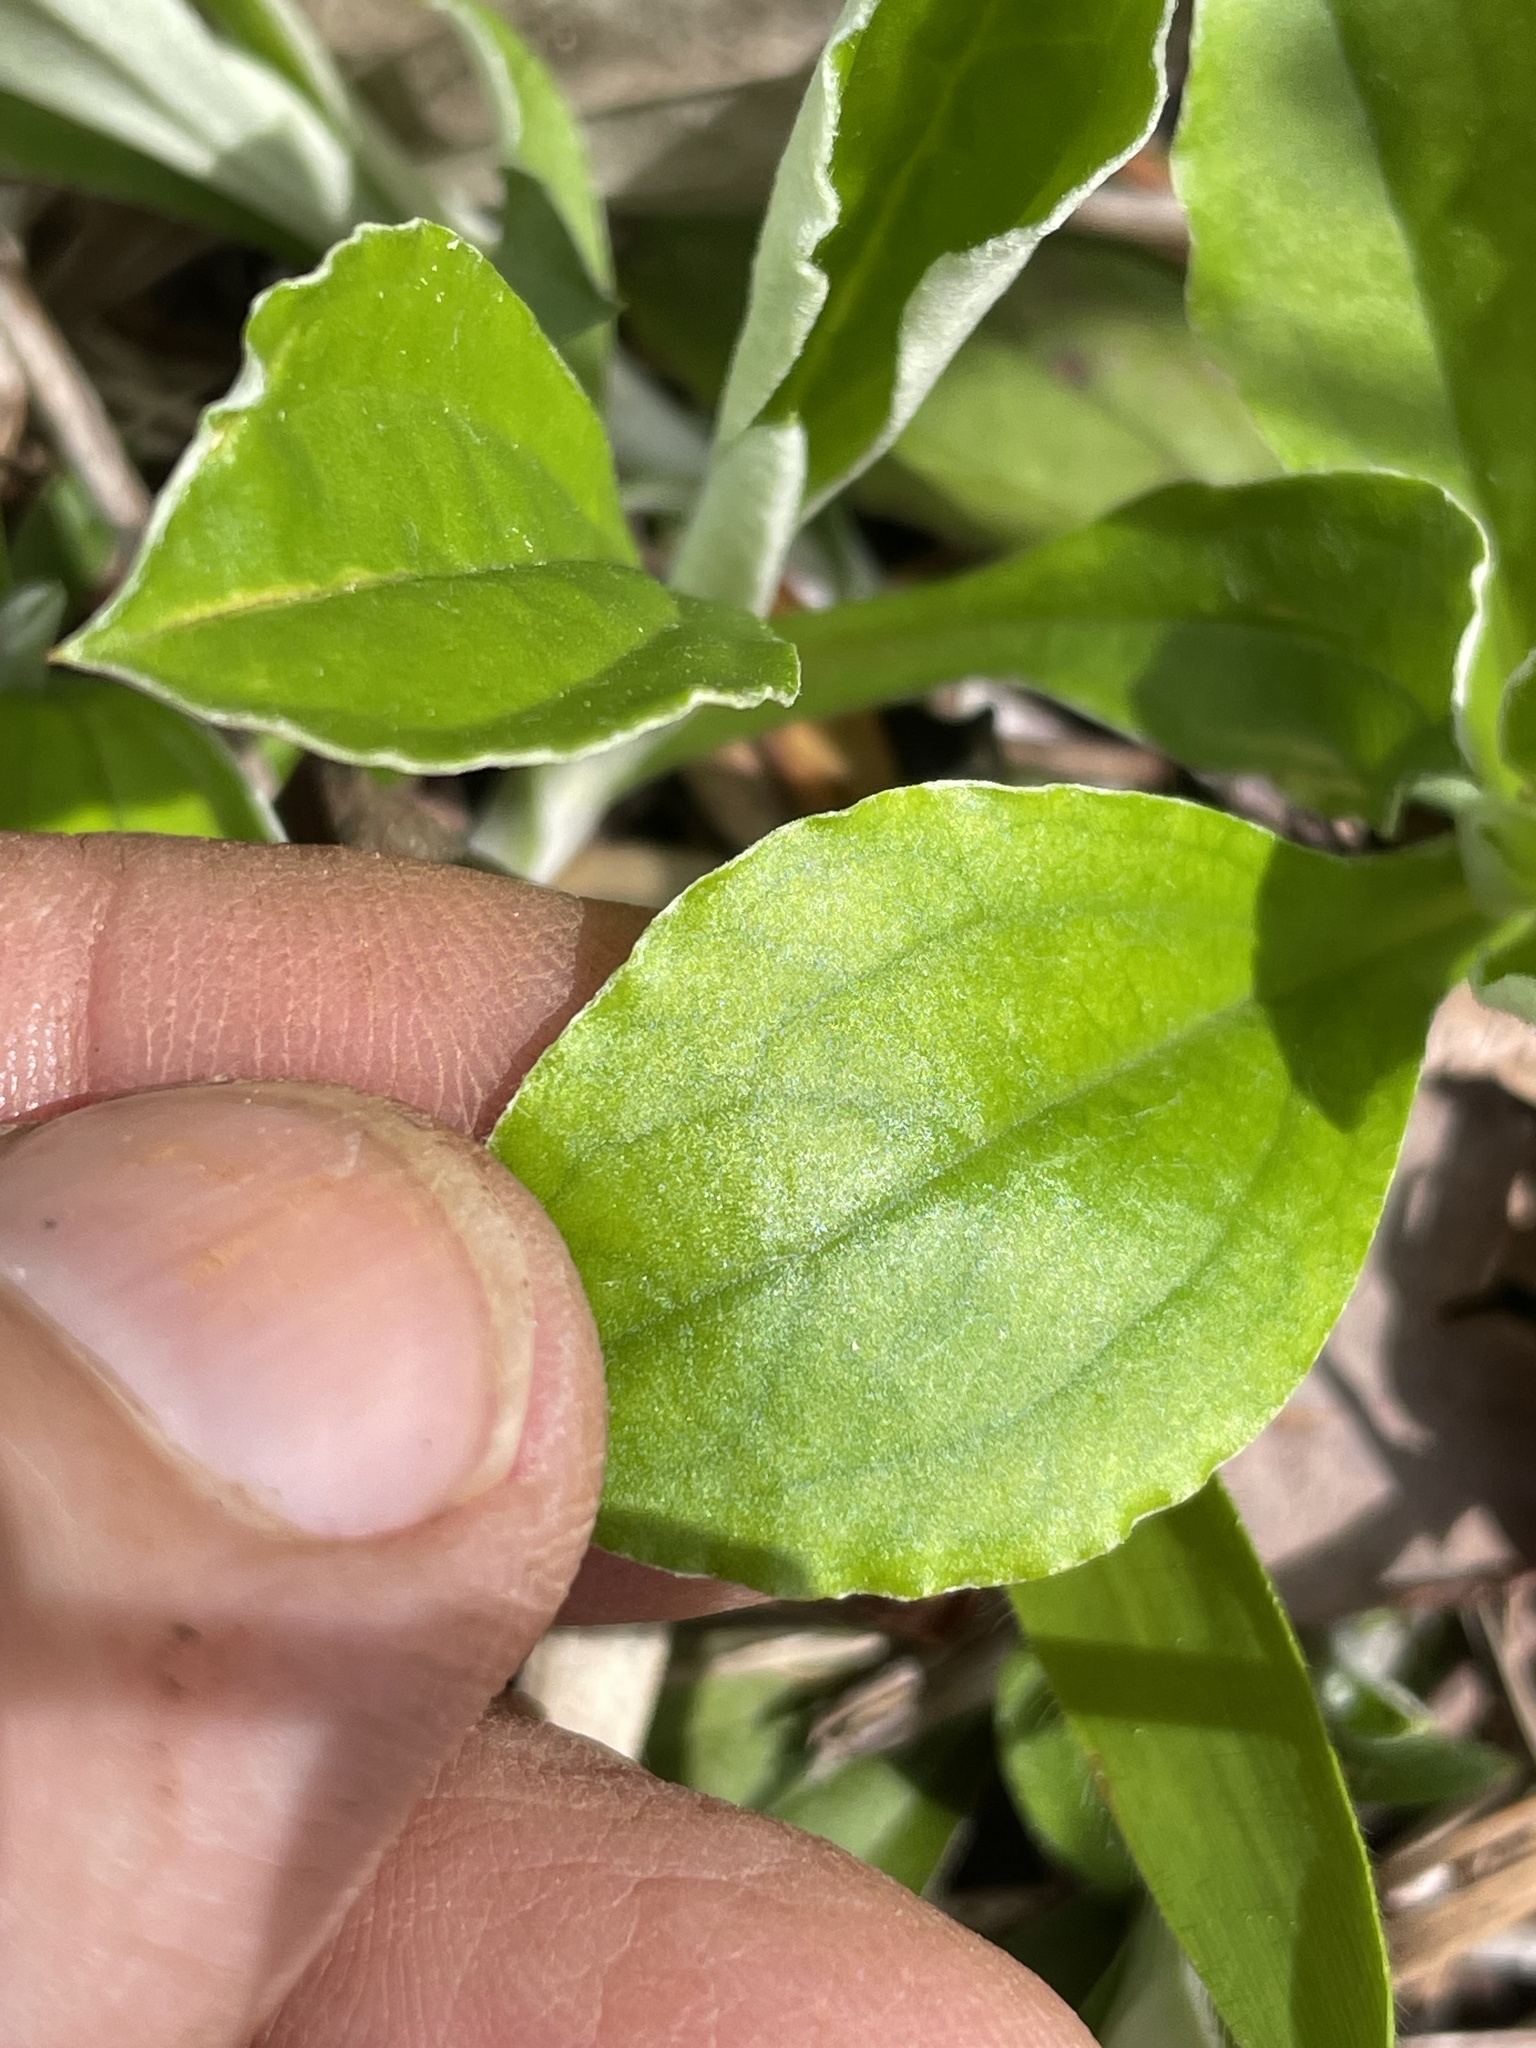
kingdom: Plantae
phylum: Tracheophyta
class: Magnoliopsida
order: Asterales
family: Asteraceae
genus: Antennaria
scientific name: Antennaria parlinii
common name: Parlin's pussytoes
